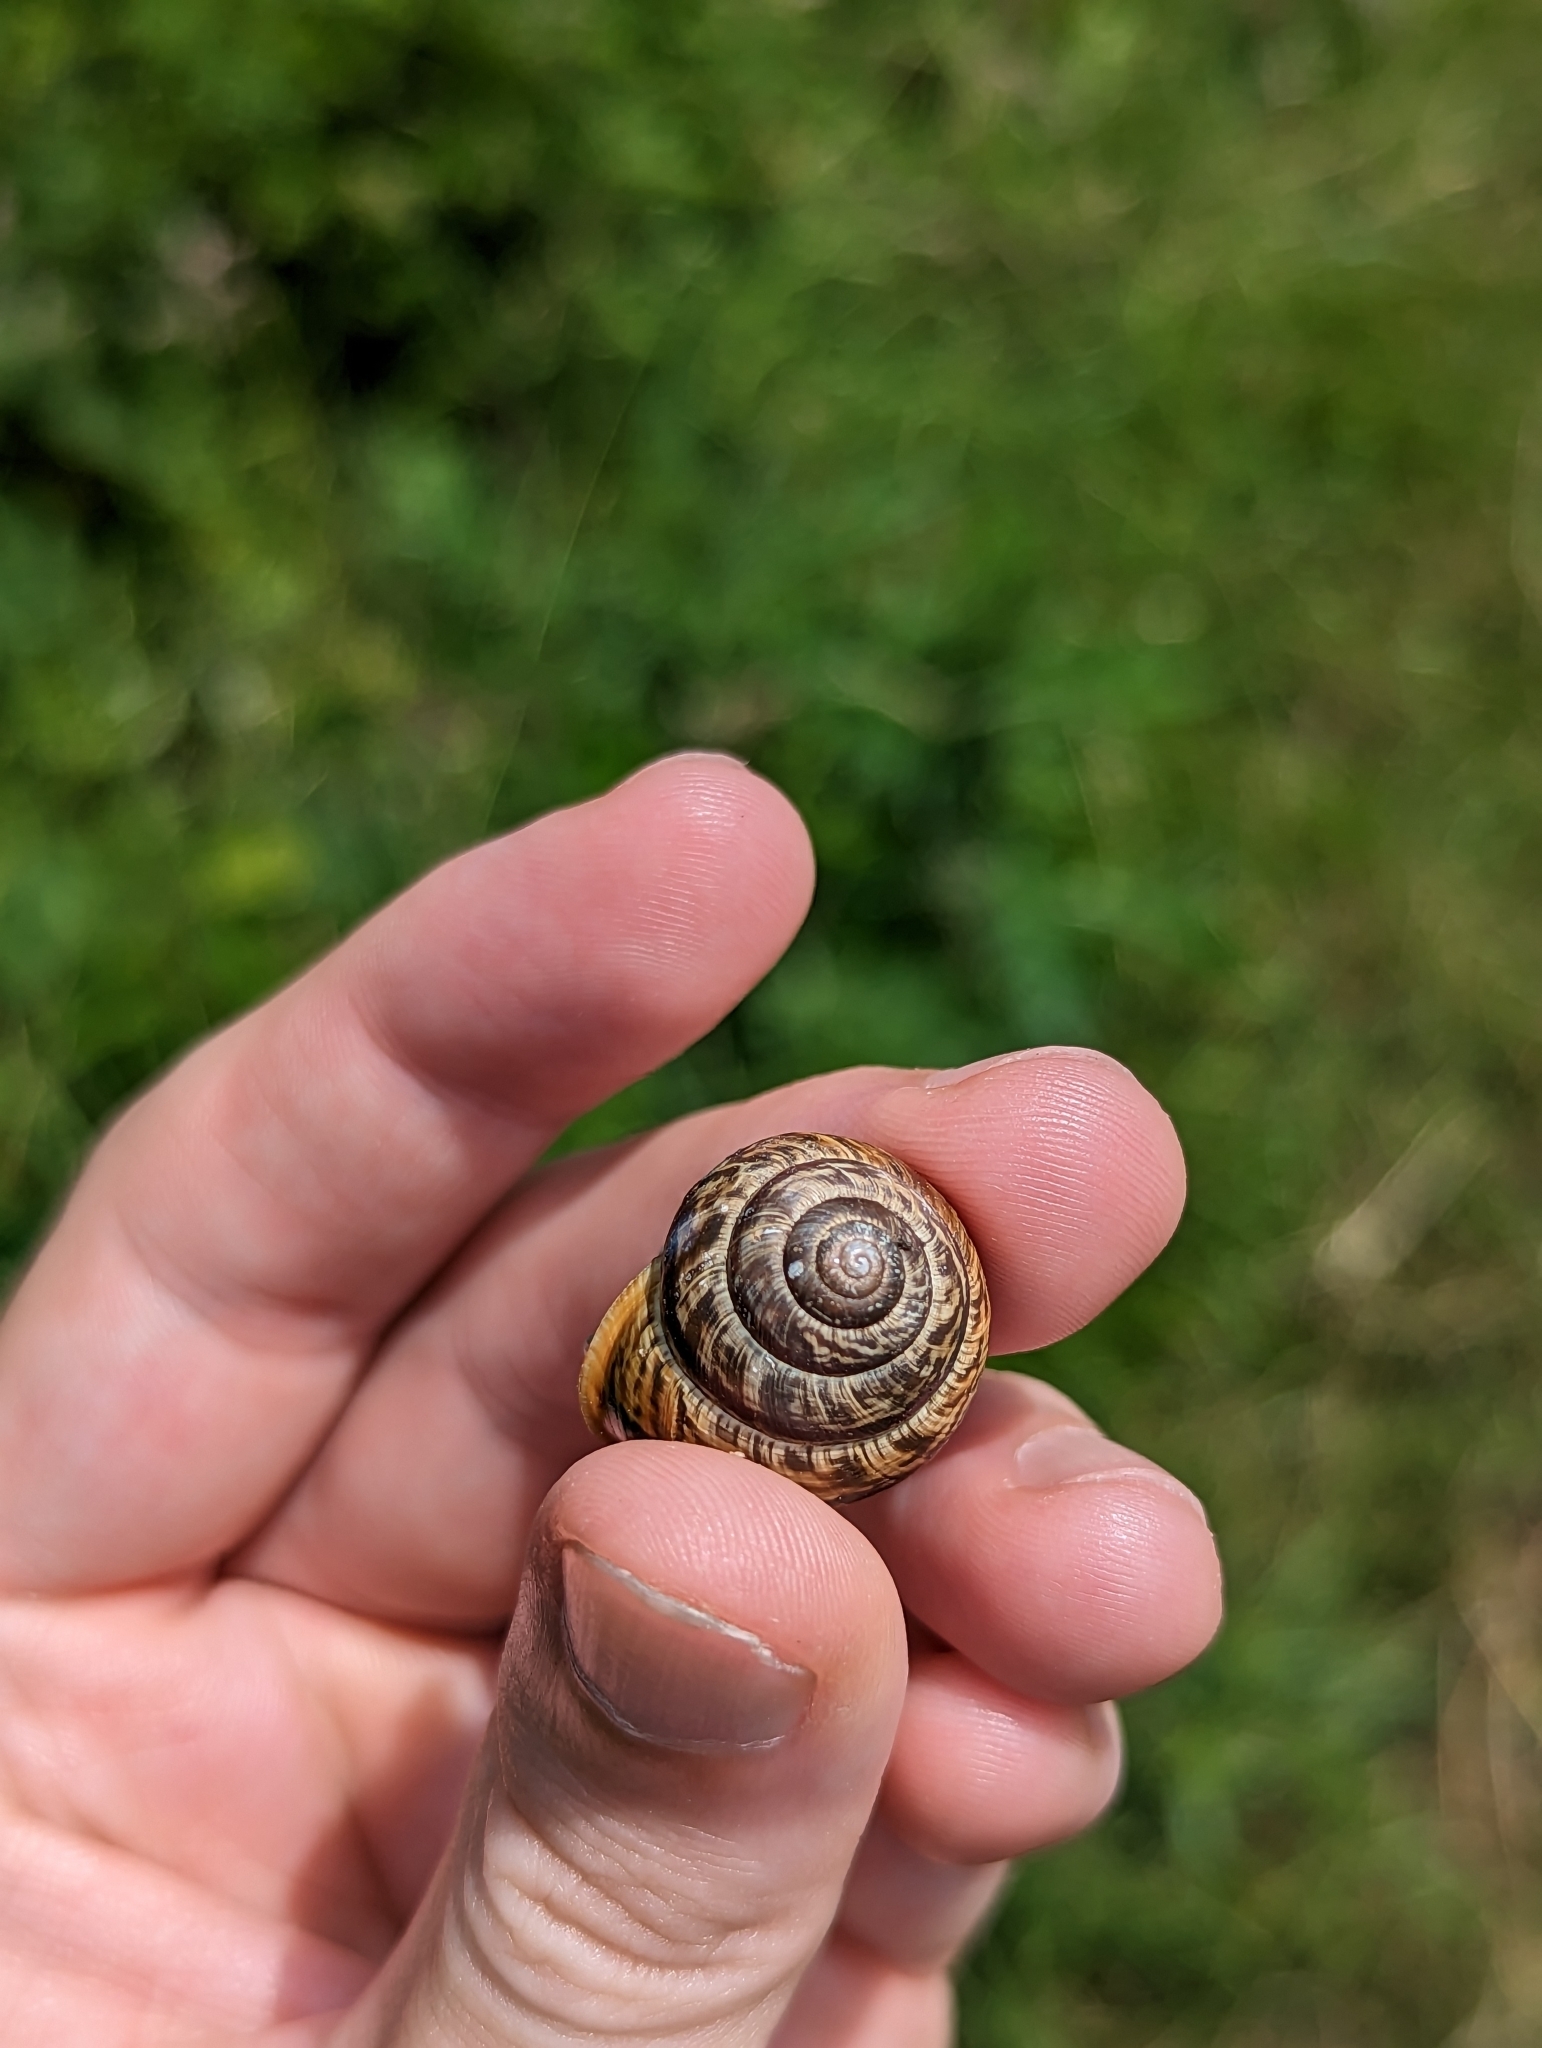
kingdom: Animalia
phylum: Mollusca
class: Gastropoda
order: Stylommatophora
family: Helicidae
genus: Arianta
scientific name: Arianta arbustorum
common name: Copse snail
